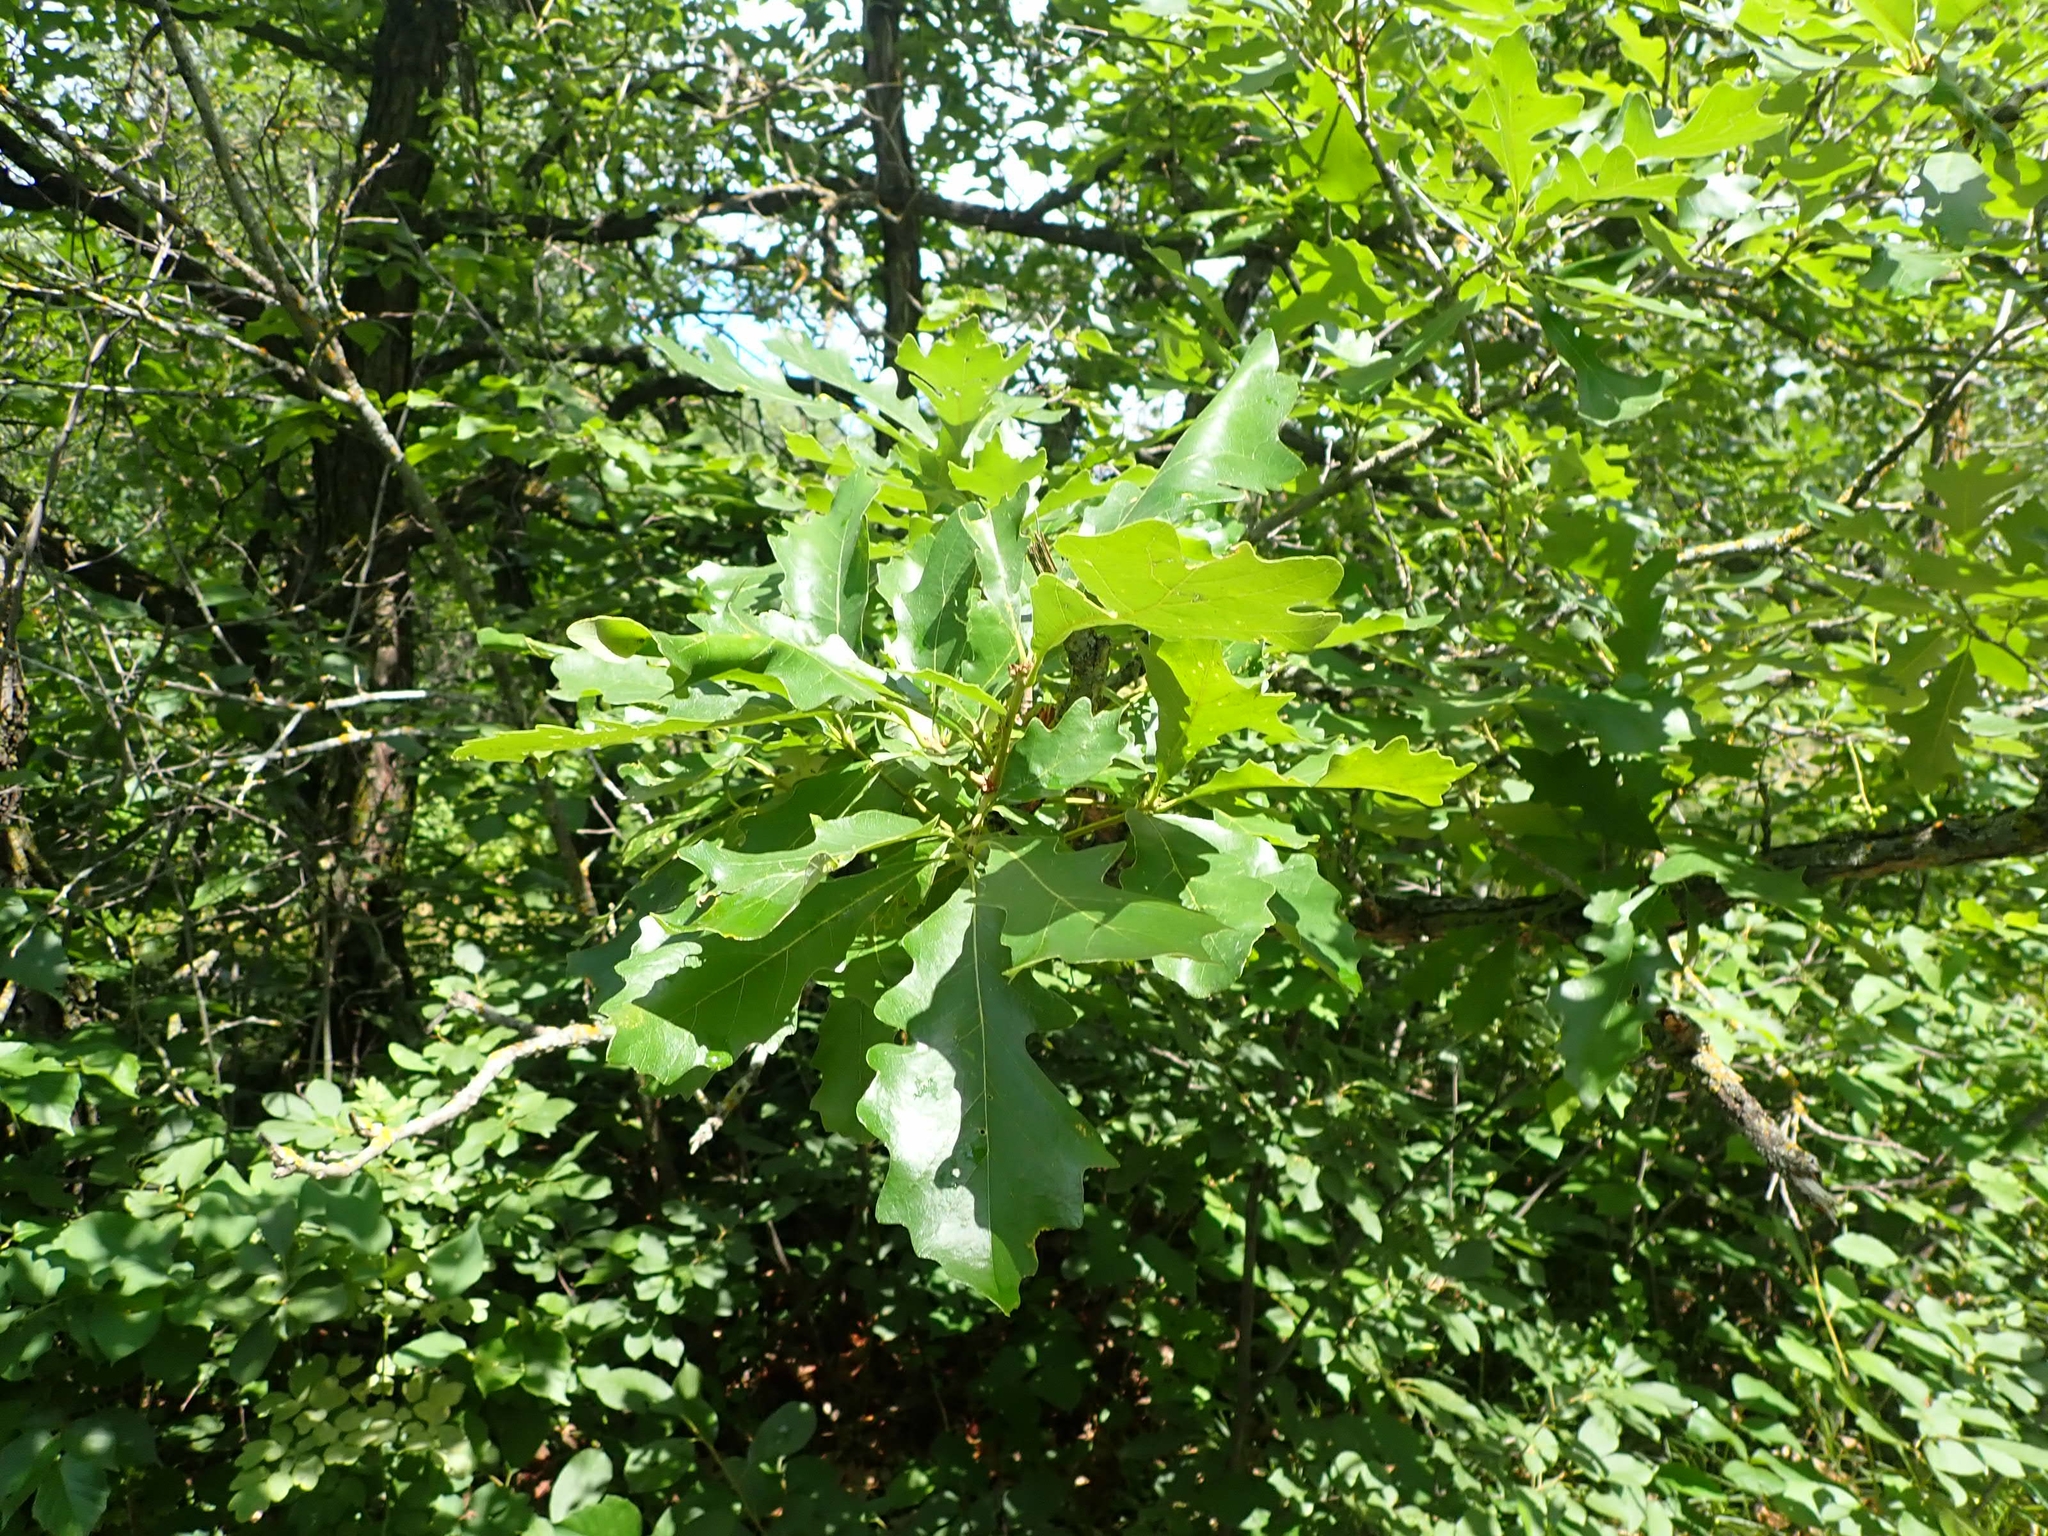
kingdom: Plantae
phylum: Tracheophyta
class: Magnoliopsida
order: Fagales
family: Fagaceae
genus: Quercus
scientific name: Quercus macrocarpa
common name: Bur oak
